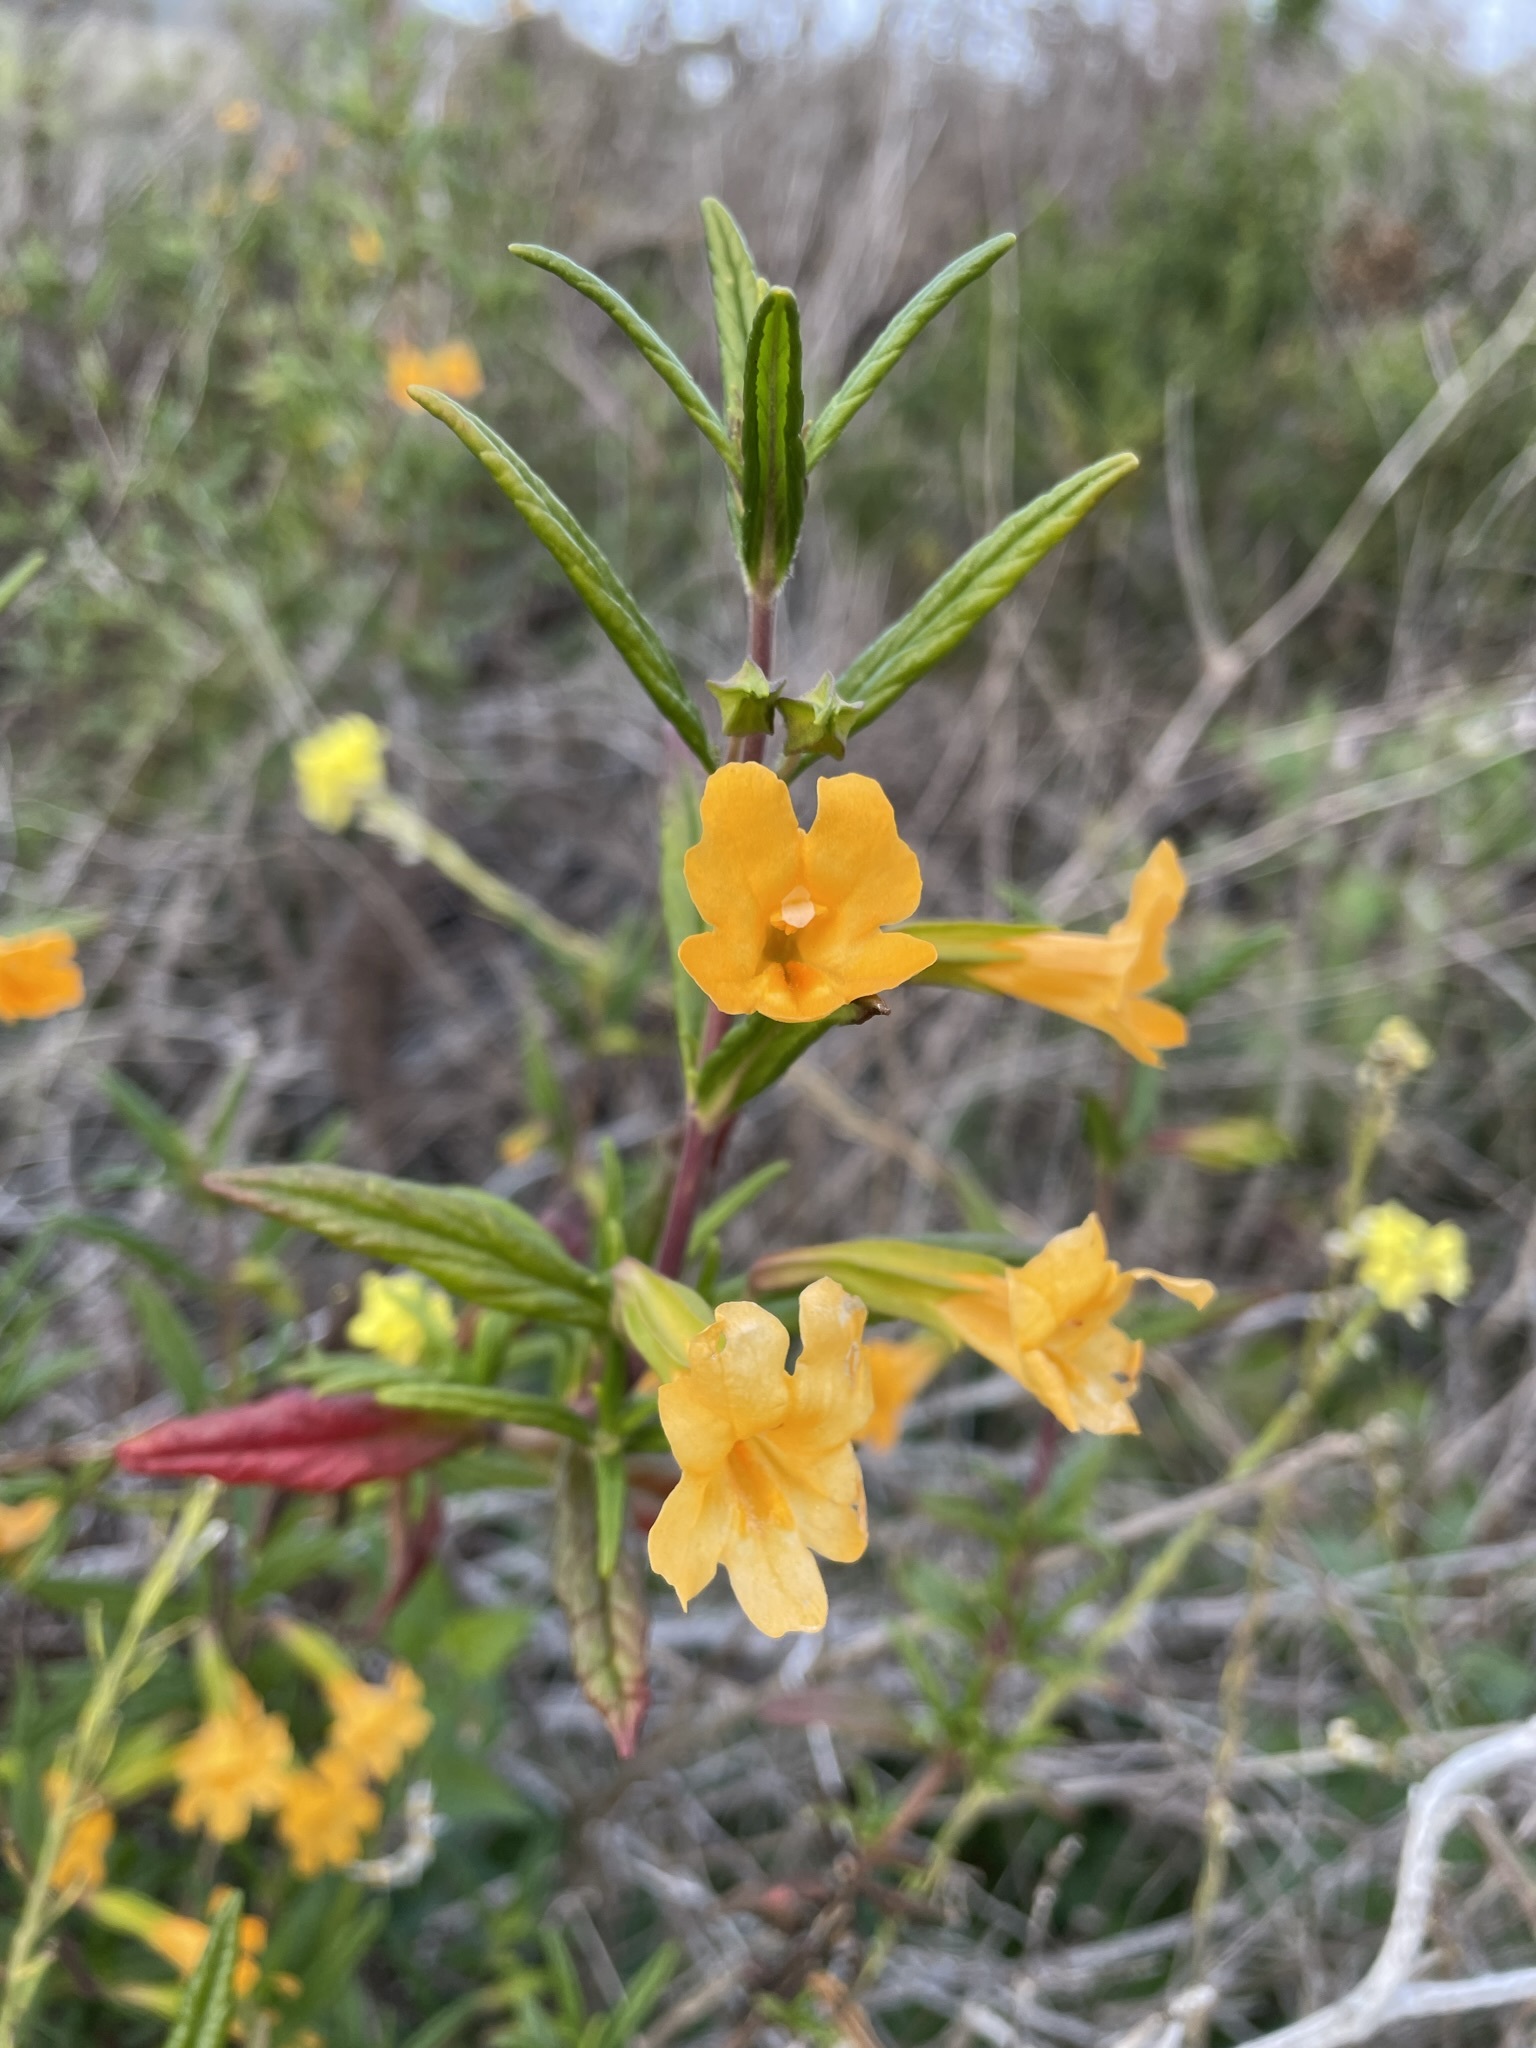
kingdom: Plantae
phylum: Tracheophyta
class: Magnoliopsida
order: Lamiales
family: Phrymaceae
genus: Diplacus
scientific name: Diplacus aurantiacus
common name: Bush monkey-flower
